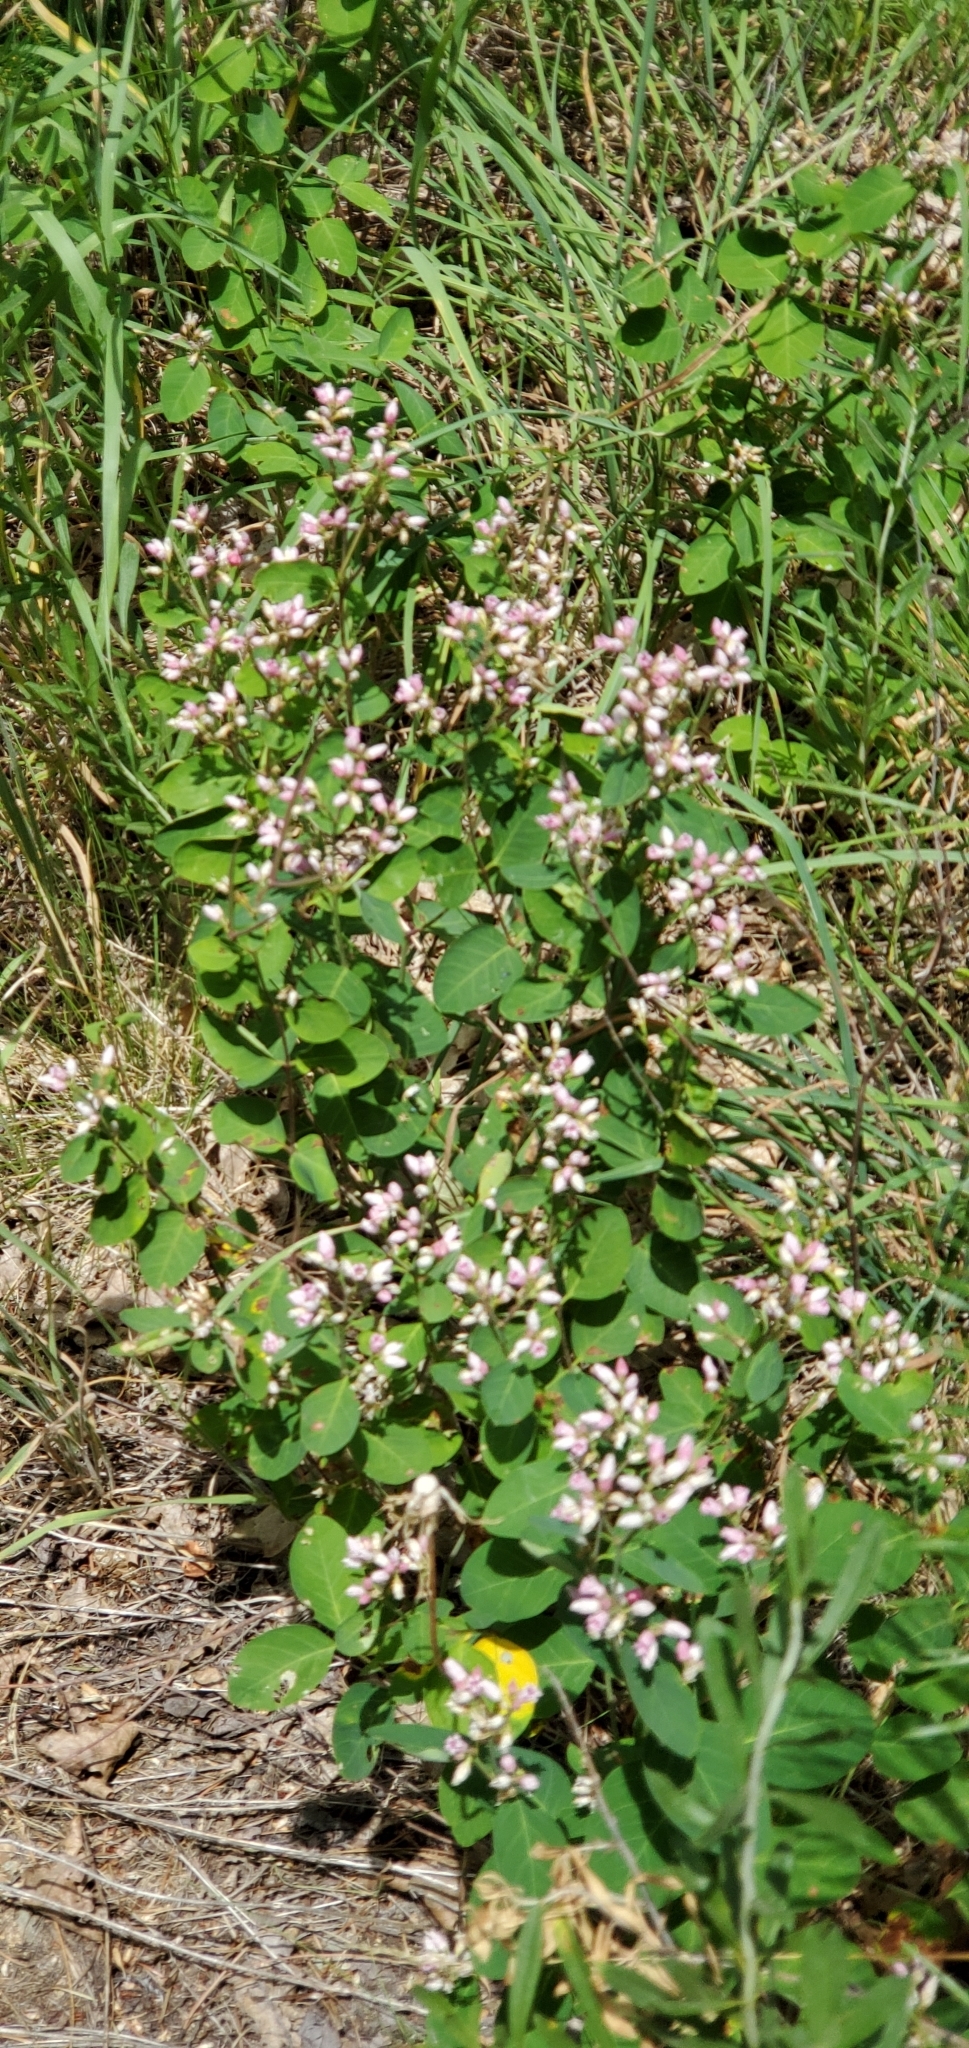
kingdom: Plantae
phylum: Tracheophyta
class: Magnoliopsida
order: Gentianales
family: Apocynaceae
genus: Apocynum
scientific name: Apocynum androsaemifolium
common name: Spreading dogbane
